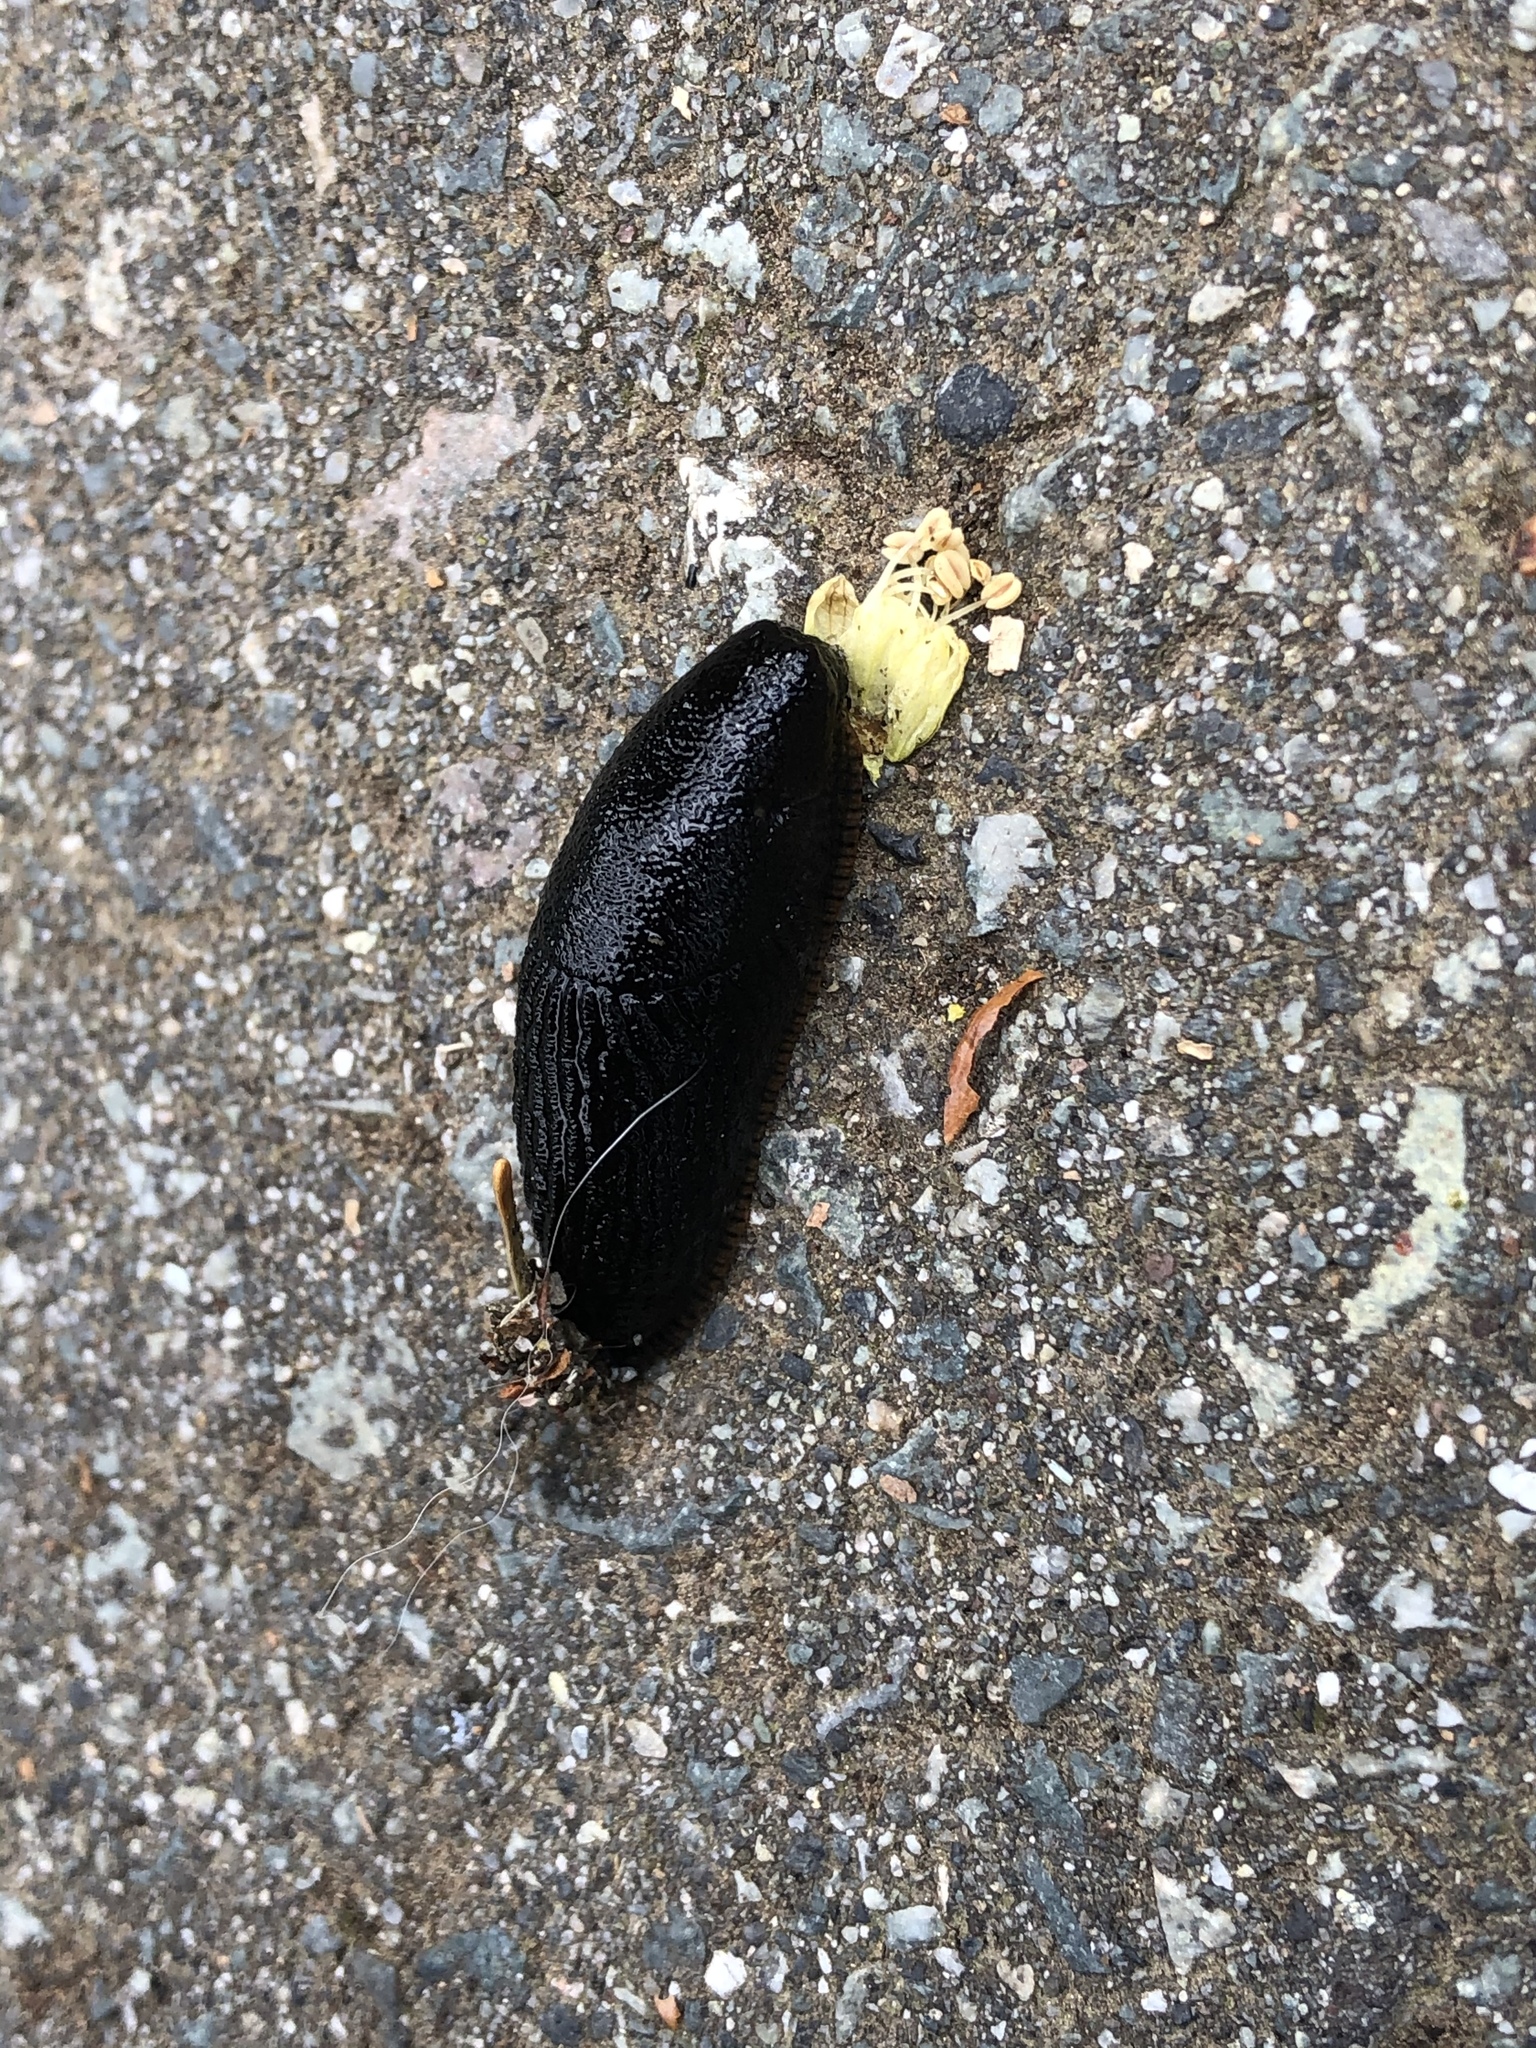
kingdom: Animalia
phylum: Mollusca
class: Gastropoda
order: Stylommatophora
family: Arionidae
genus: Arion
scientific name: Arion rufus
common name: Chocolate arion
